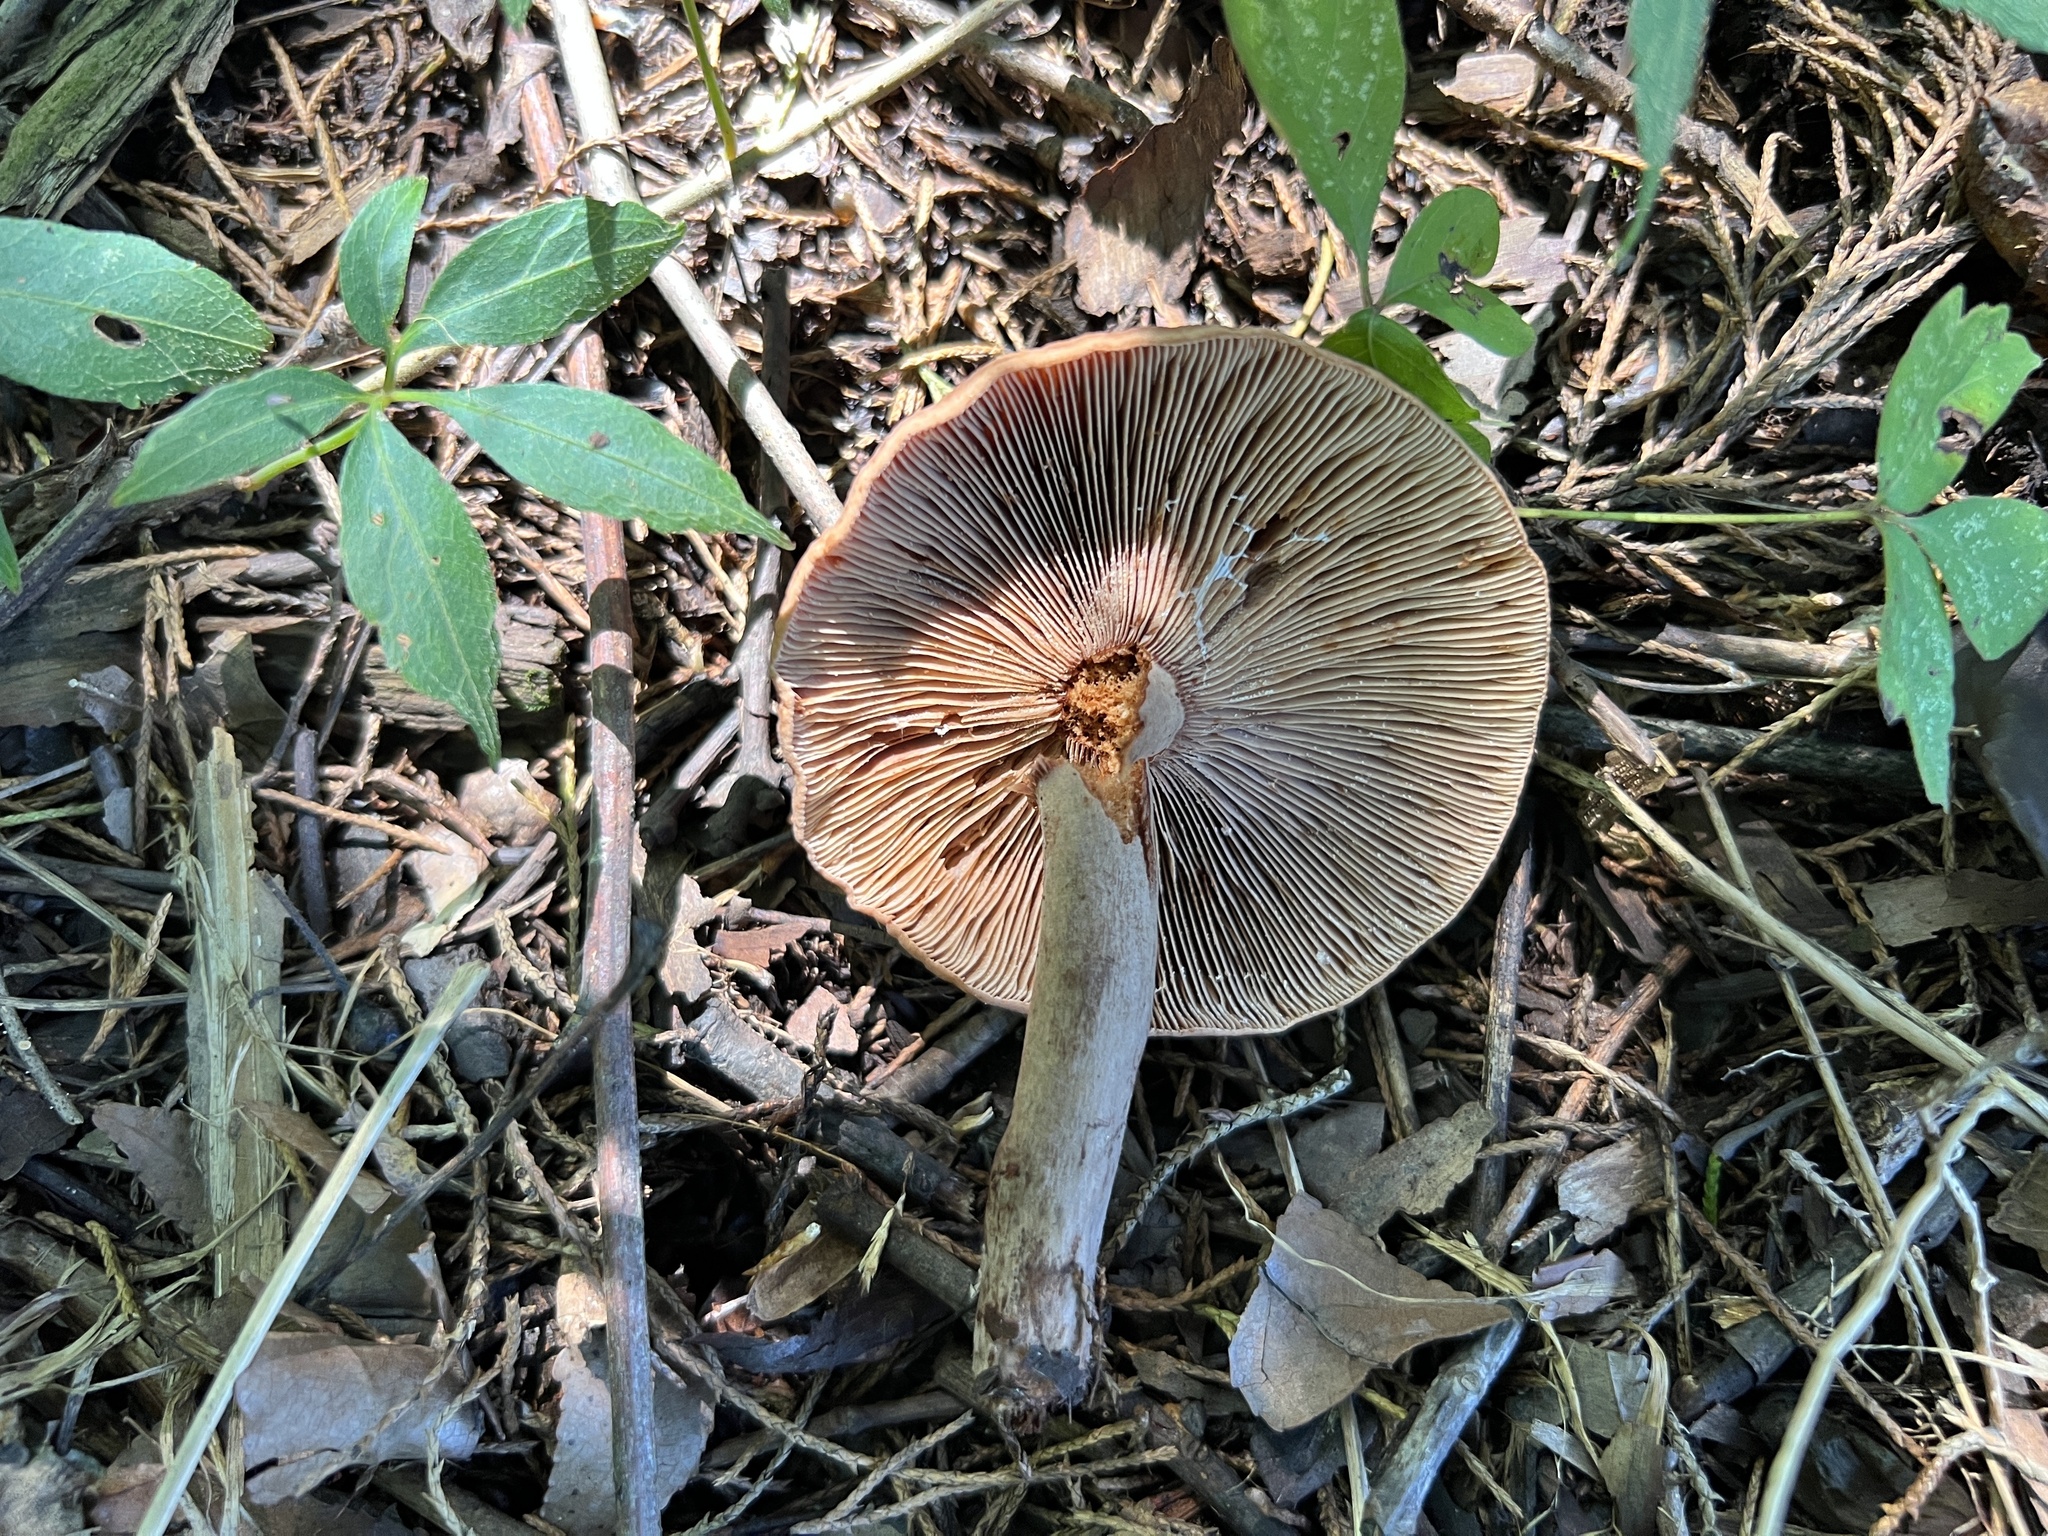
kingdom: Fungi
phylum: Basidiomycota
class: Agaricomycetes
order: Russulales
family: Russulaceae
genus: Lactarius
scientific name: Lactarius mutabilis
